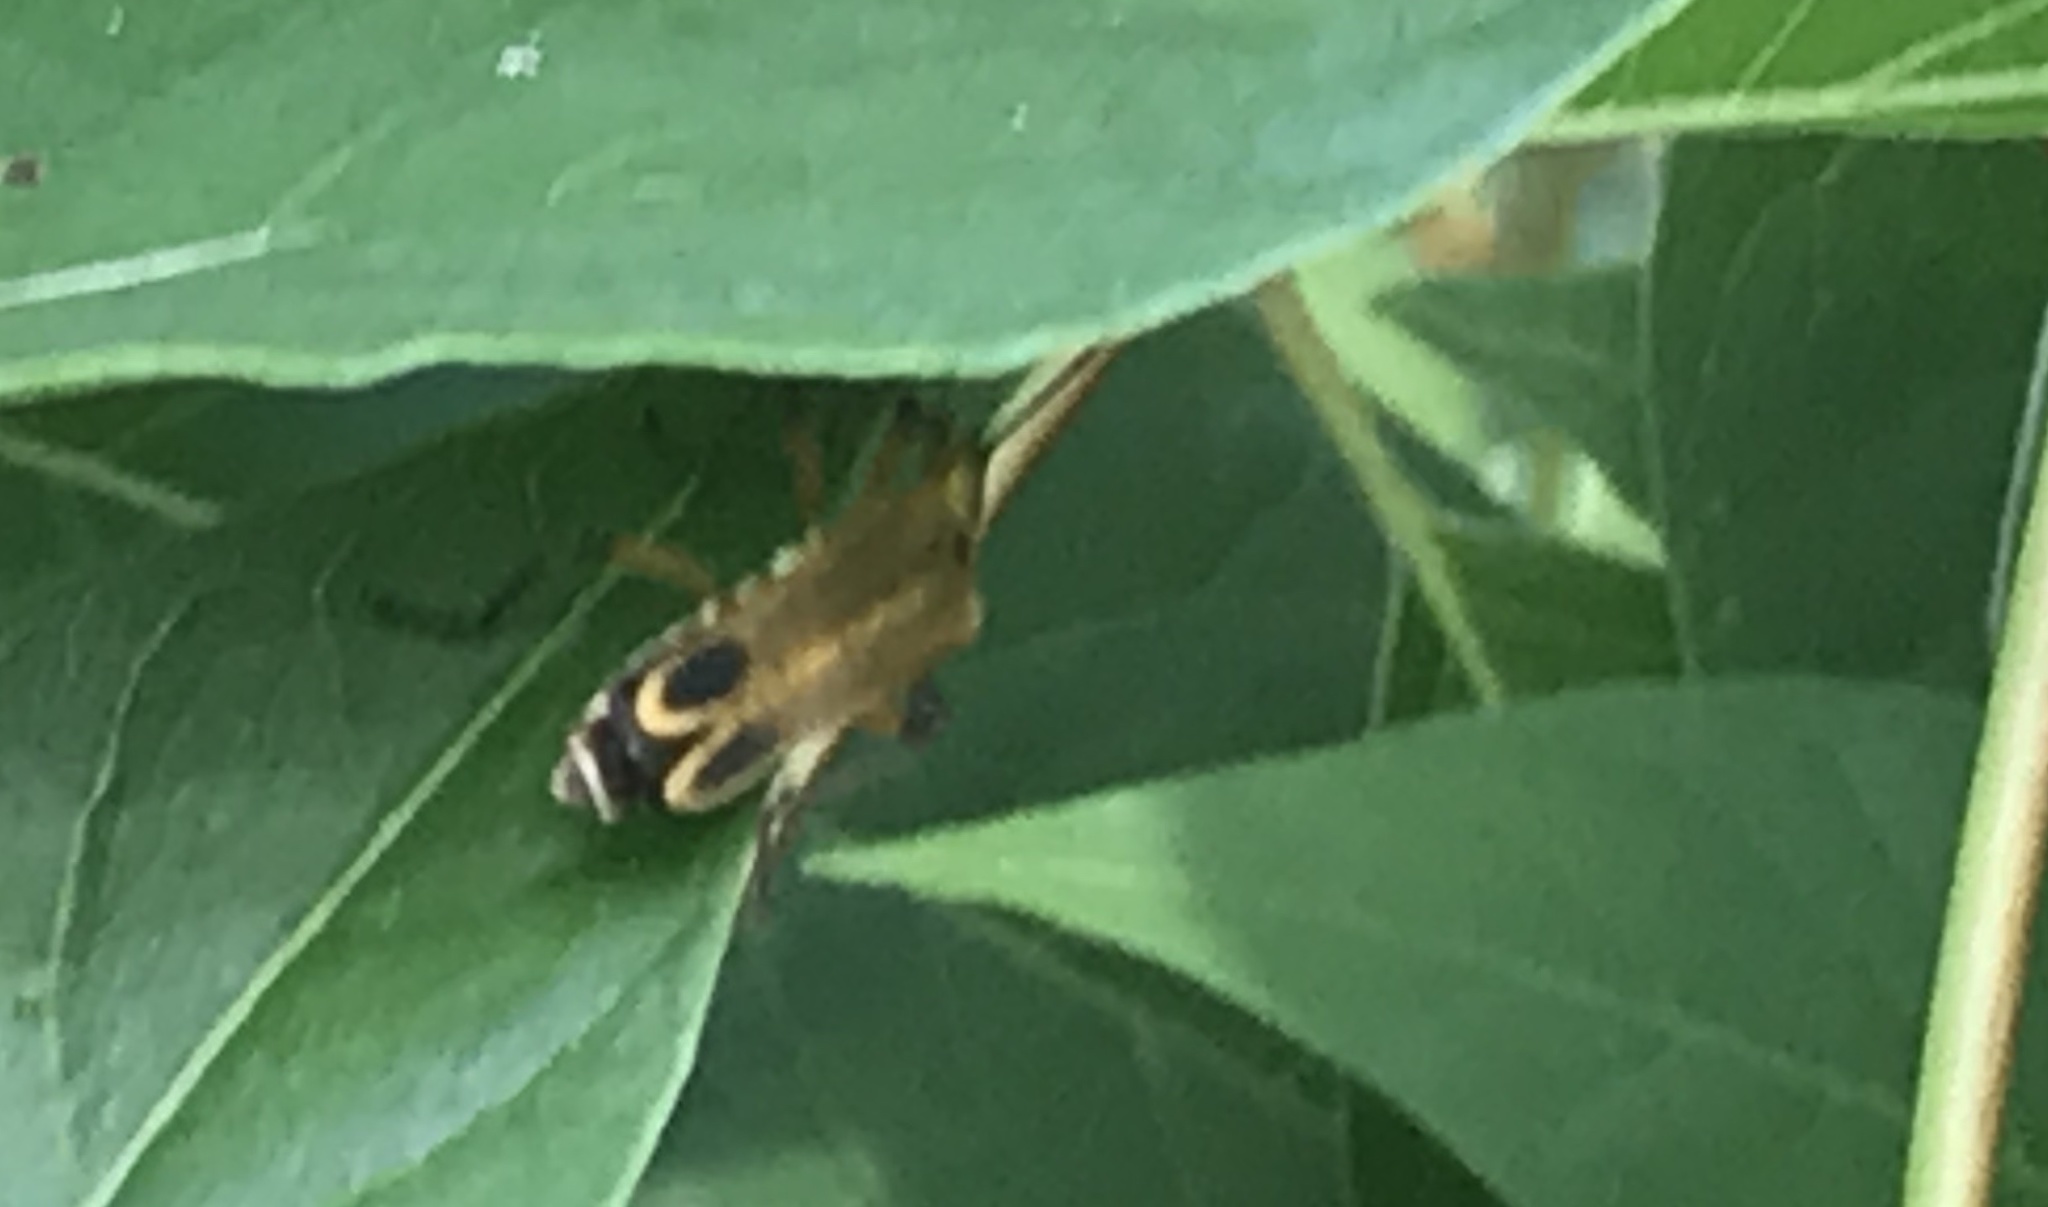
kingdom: Animalia
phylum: Arthropoda
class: Insecta
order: Coleoptera
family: Cantharidae
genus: Chauliognathus
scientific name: Chauliognathus marginatus
